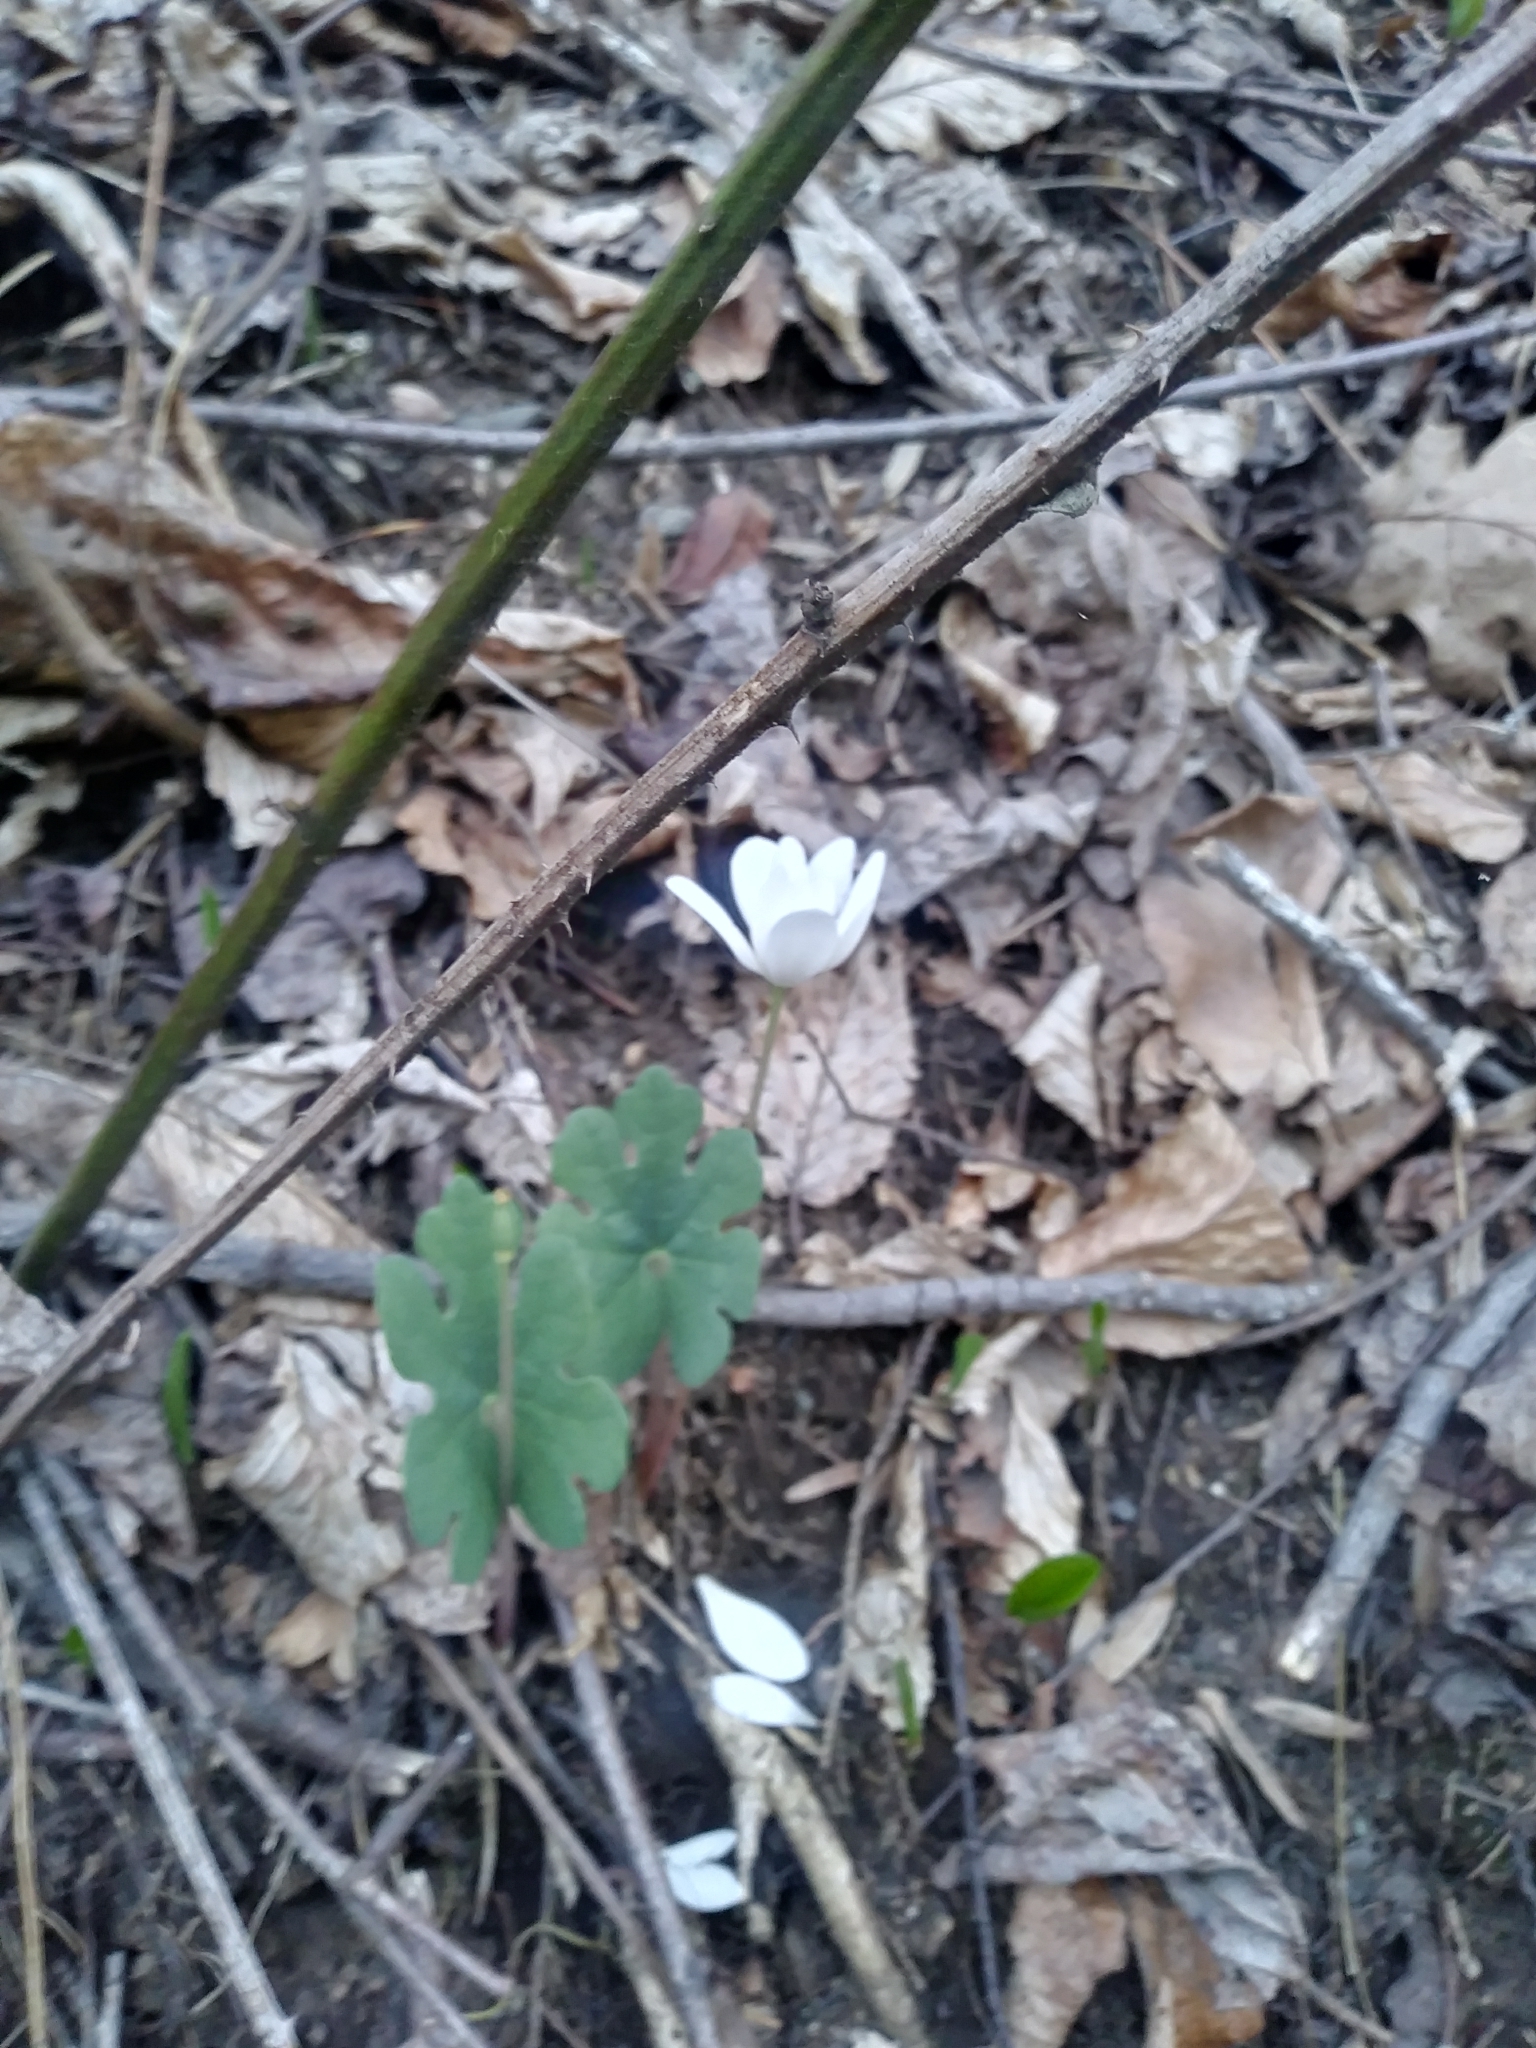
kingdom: Plantae
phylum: Tracheophyta
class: Magnoliopsida
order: Ranunculales
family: Papaveraceae
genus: Sanguinaria
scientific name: Sanguinaria canadensis
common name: Bloodroot
